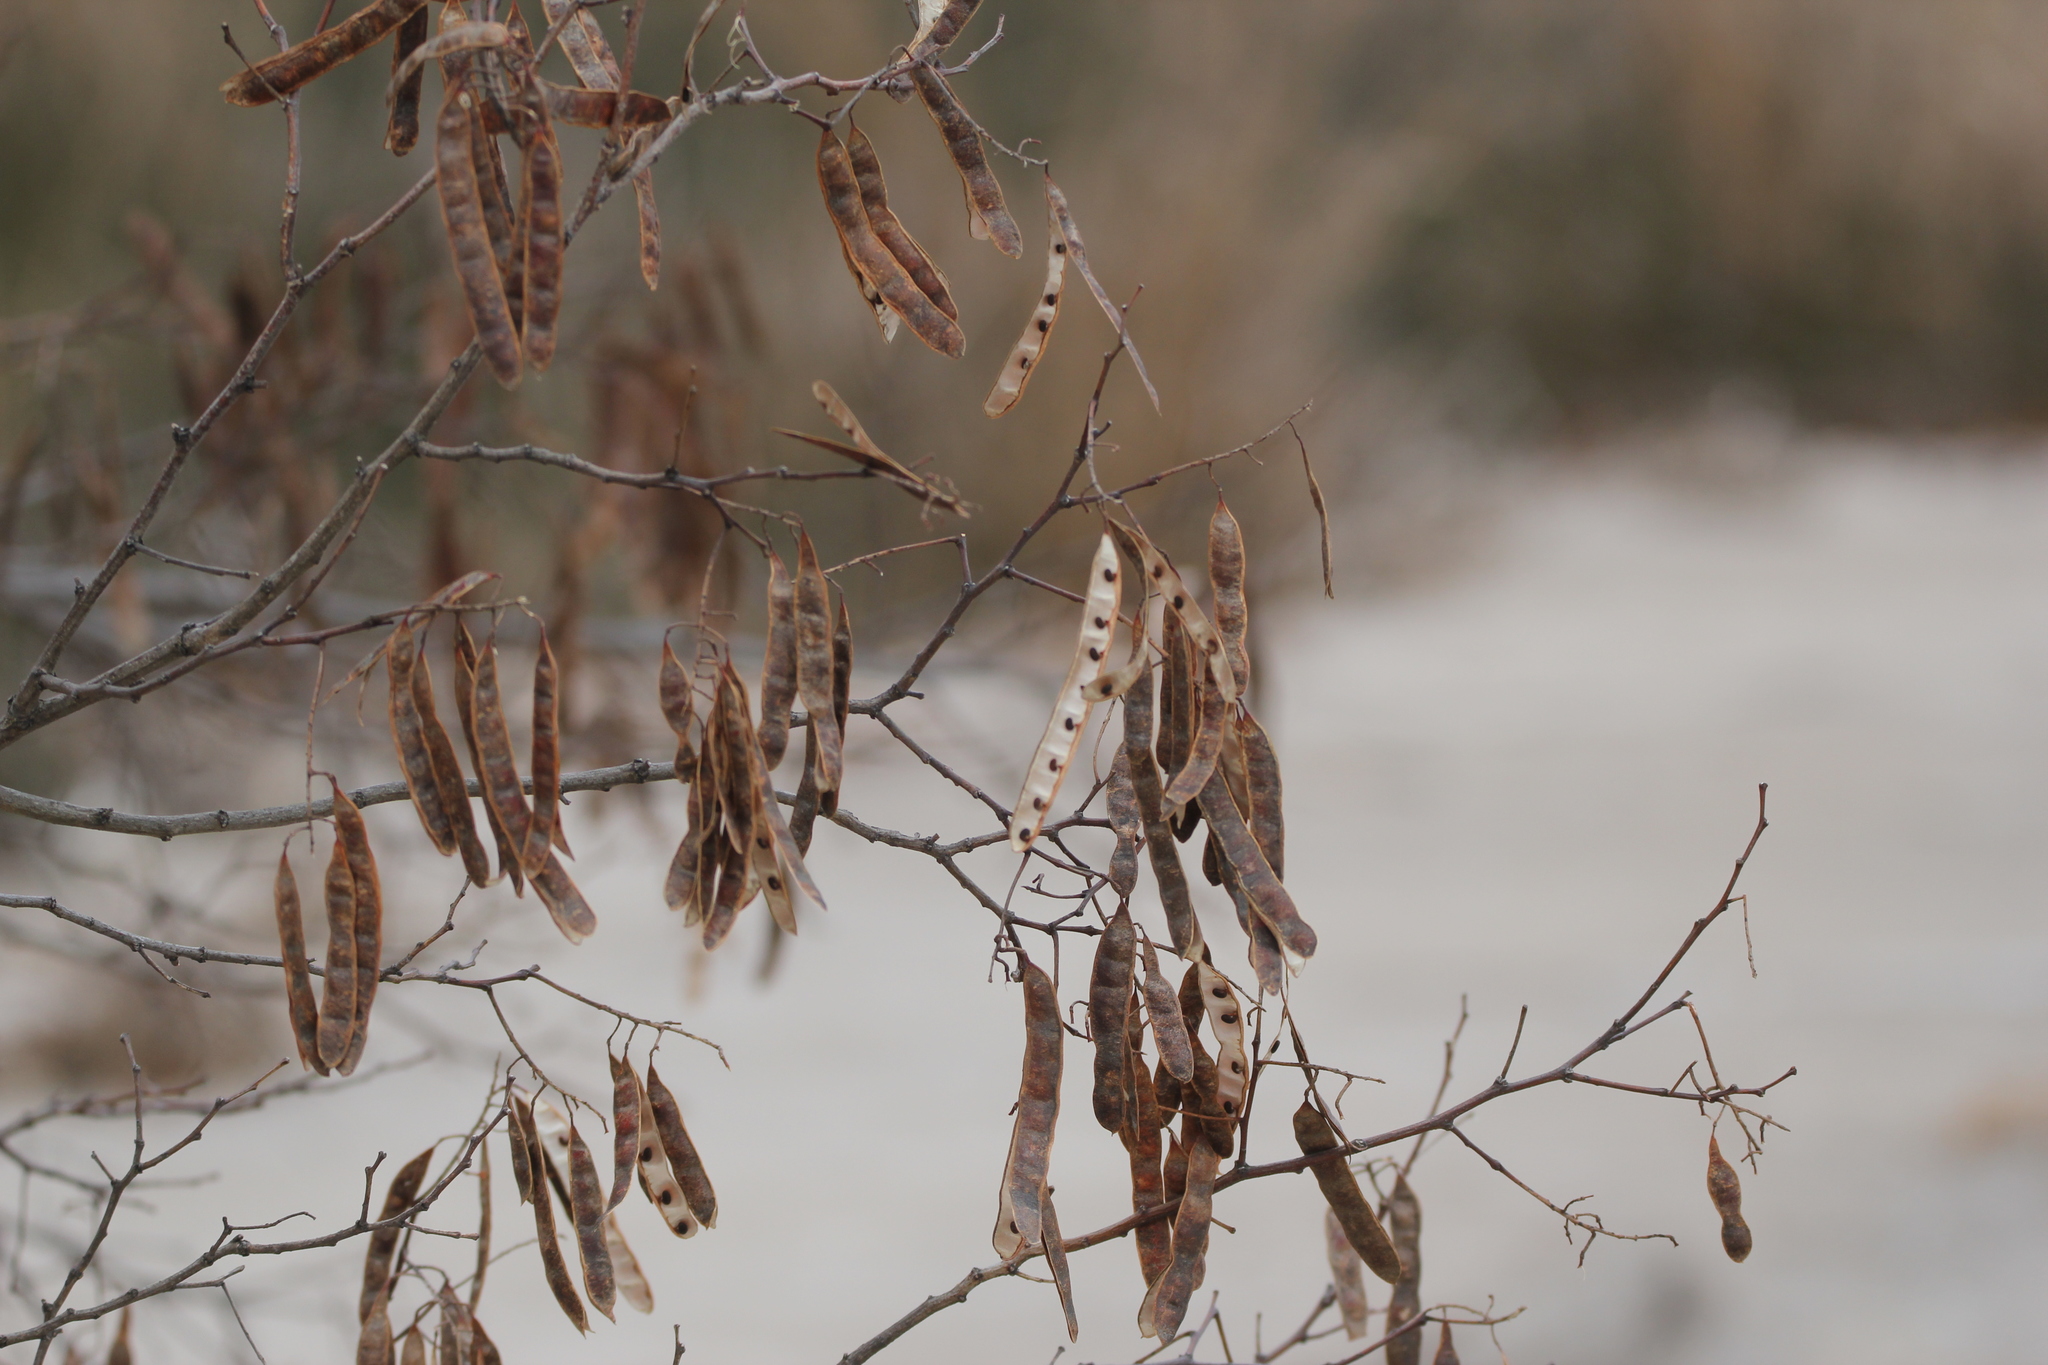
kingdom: Plantae
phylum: Tracheophyta
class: Magnoliopsida
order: Fabales
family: Fabaceae
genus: Robinia
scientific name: Robinia pseudoacacia
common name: Black locust
